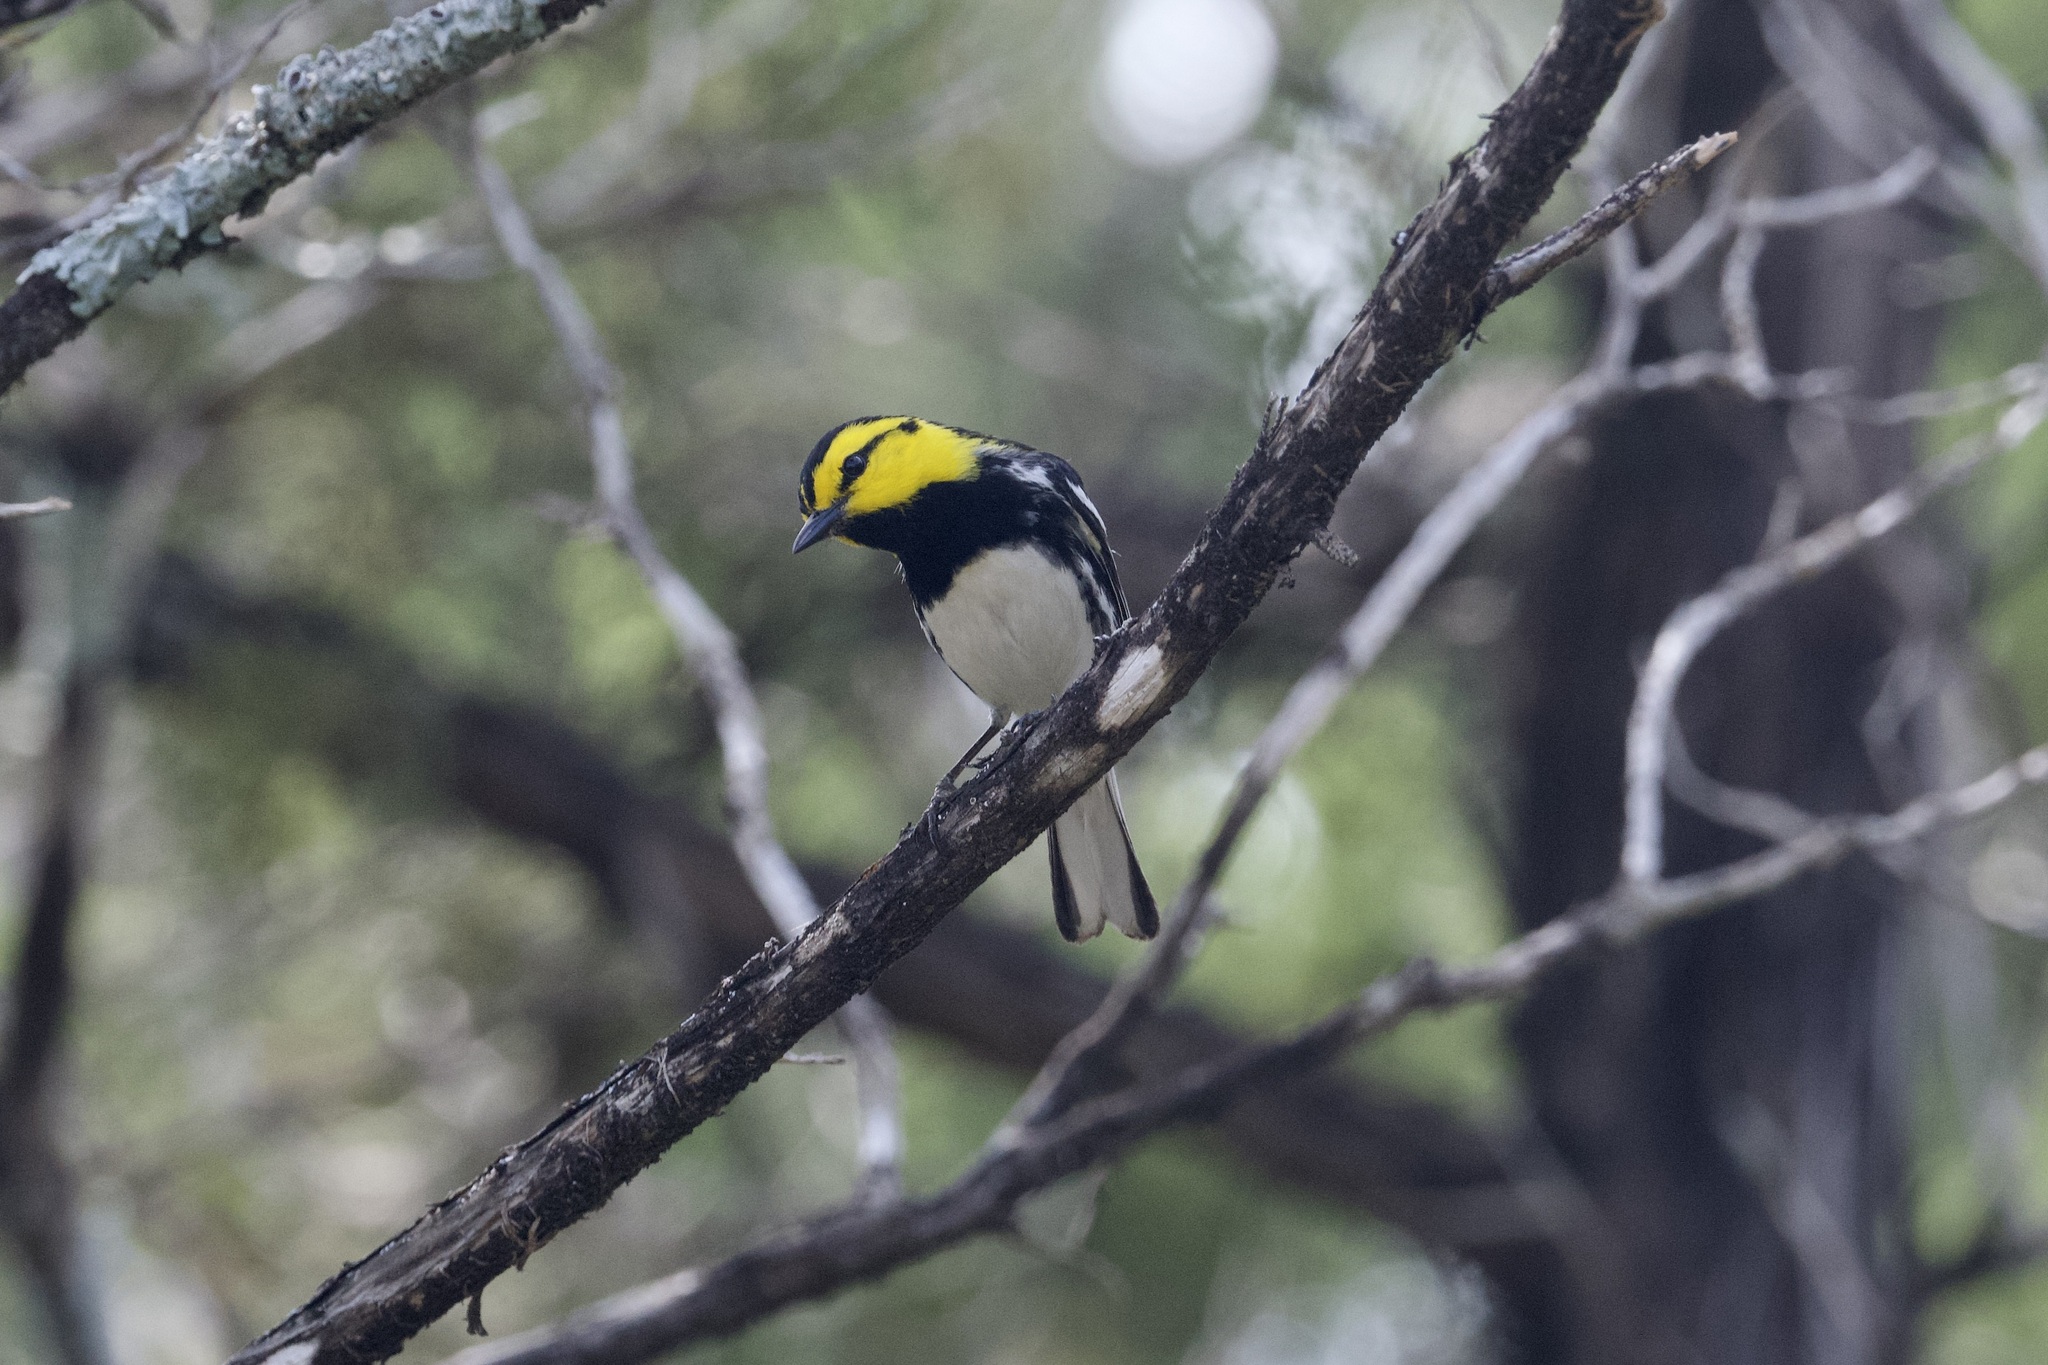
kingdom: Animalia
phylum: Chordata
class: Aves
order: Passeriformes
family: Parulidae
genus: Setophaga
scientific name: Setophaga chrysoparia
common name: Golden-cheeked warbler
